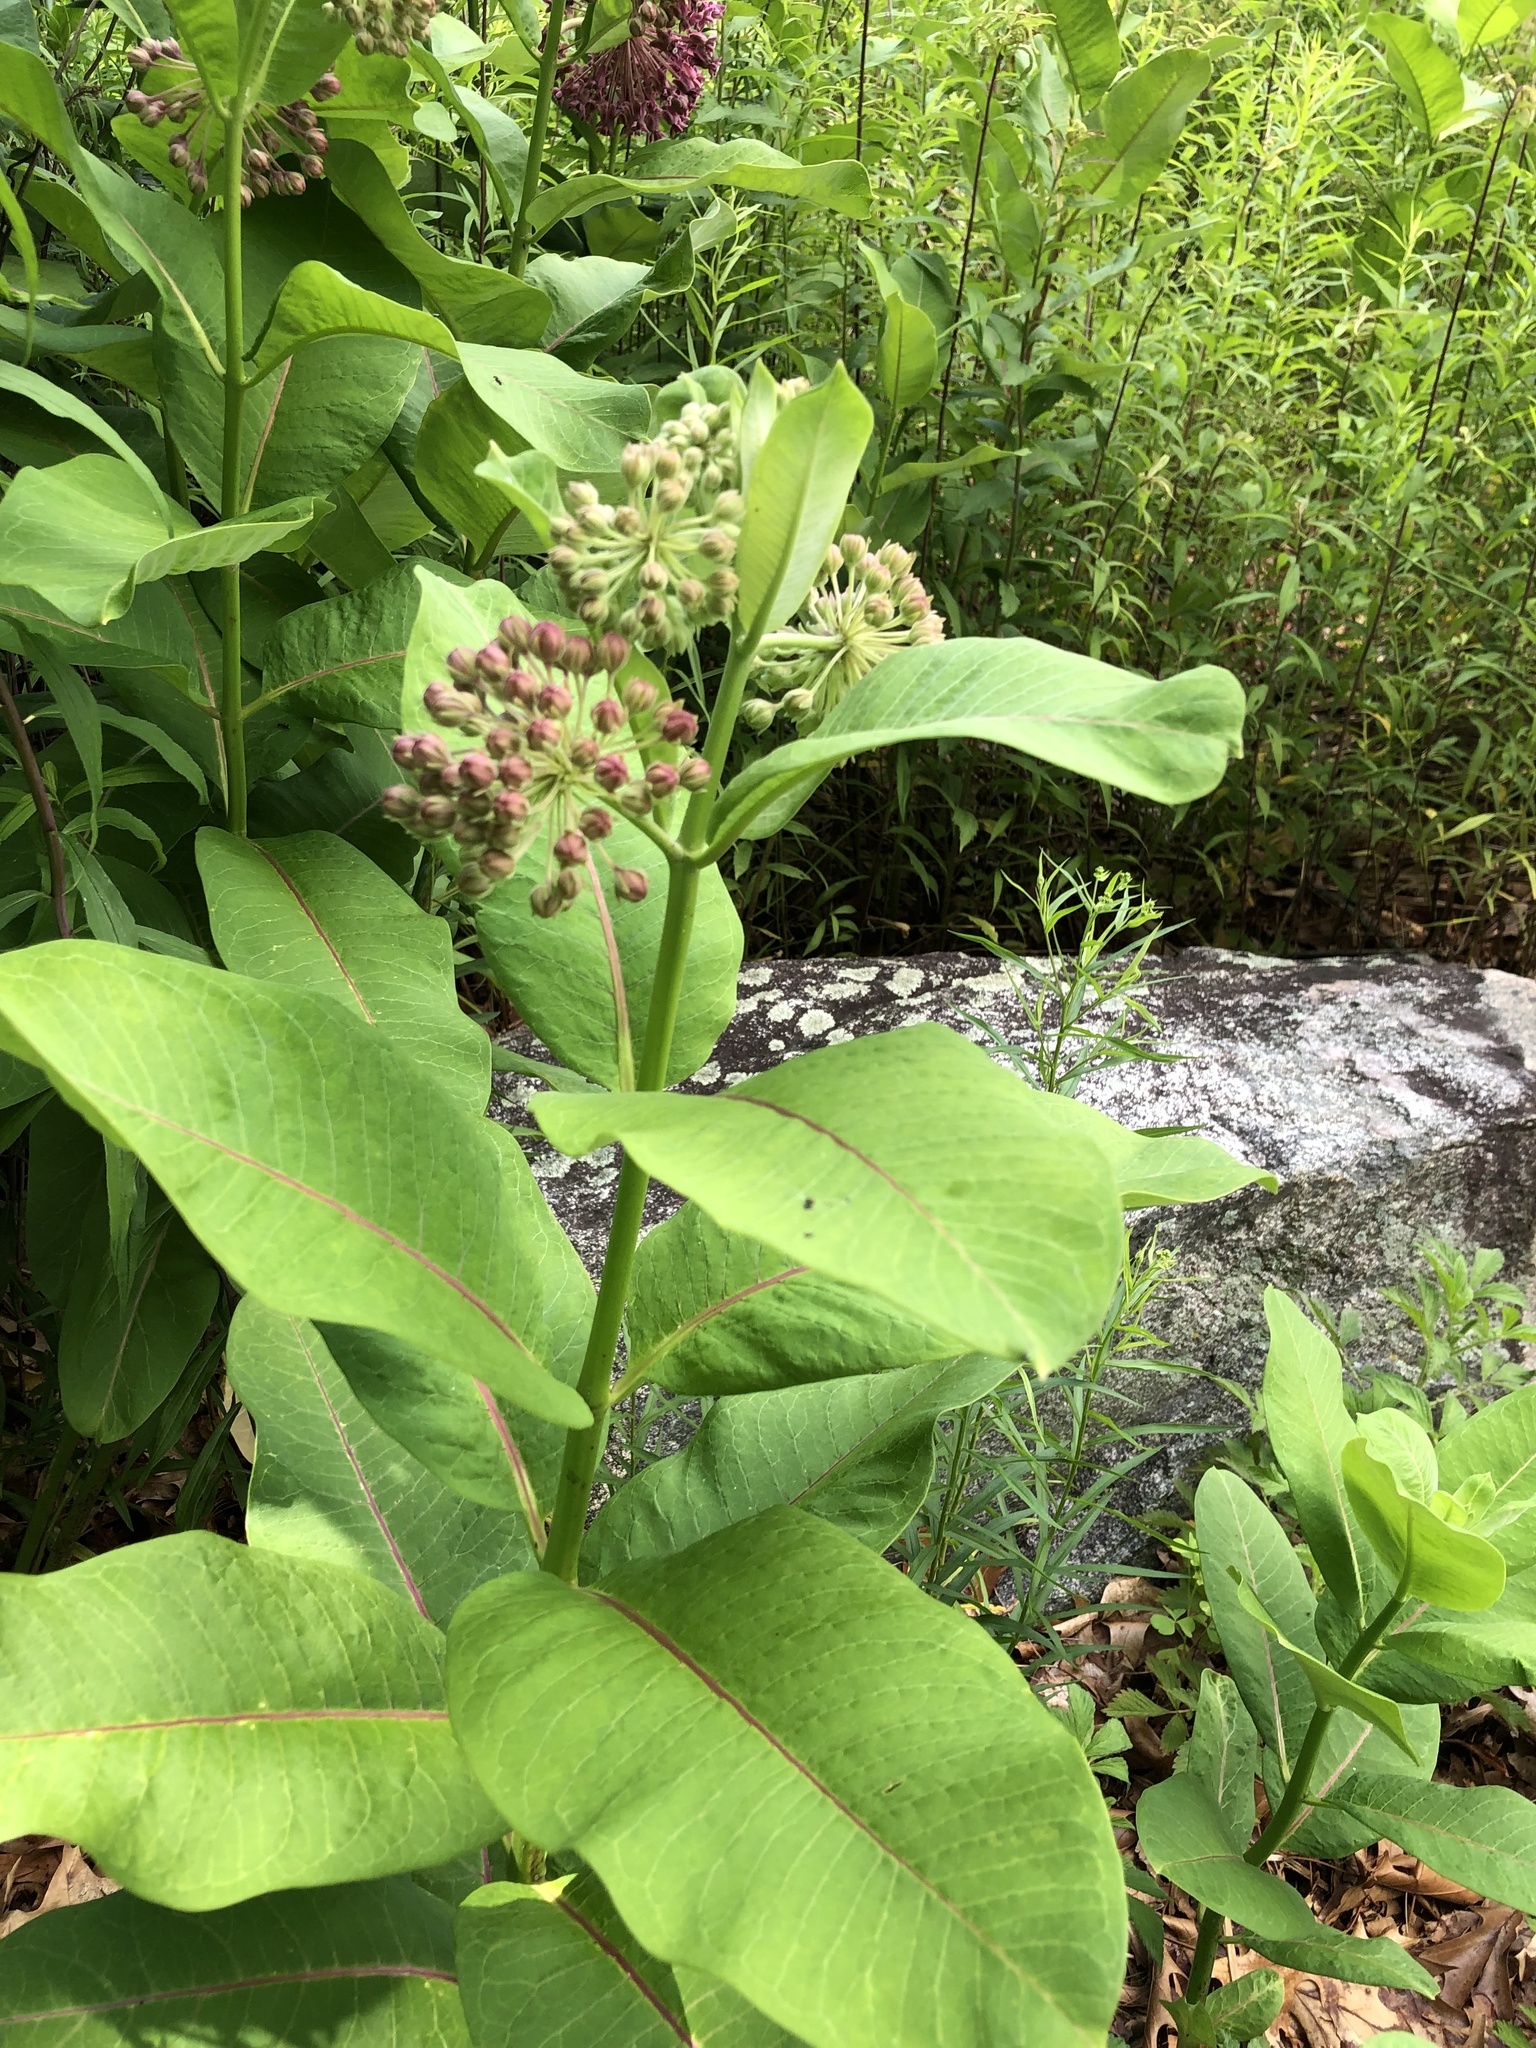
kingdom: Plantae
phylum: Tracheophyta
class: Magnoliopsida
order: Gentianales
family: Apocynaceae
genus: Asclepias
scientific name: Asclepias syriaca
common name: Common milkweed
